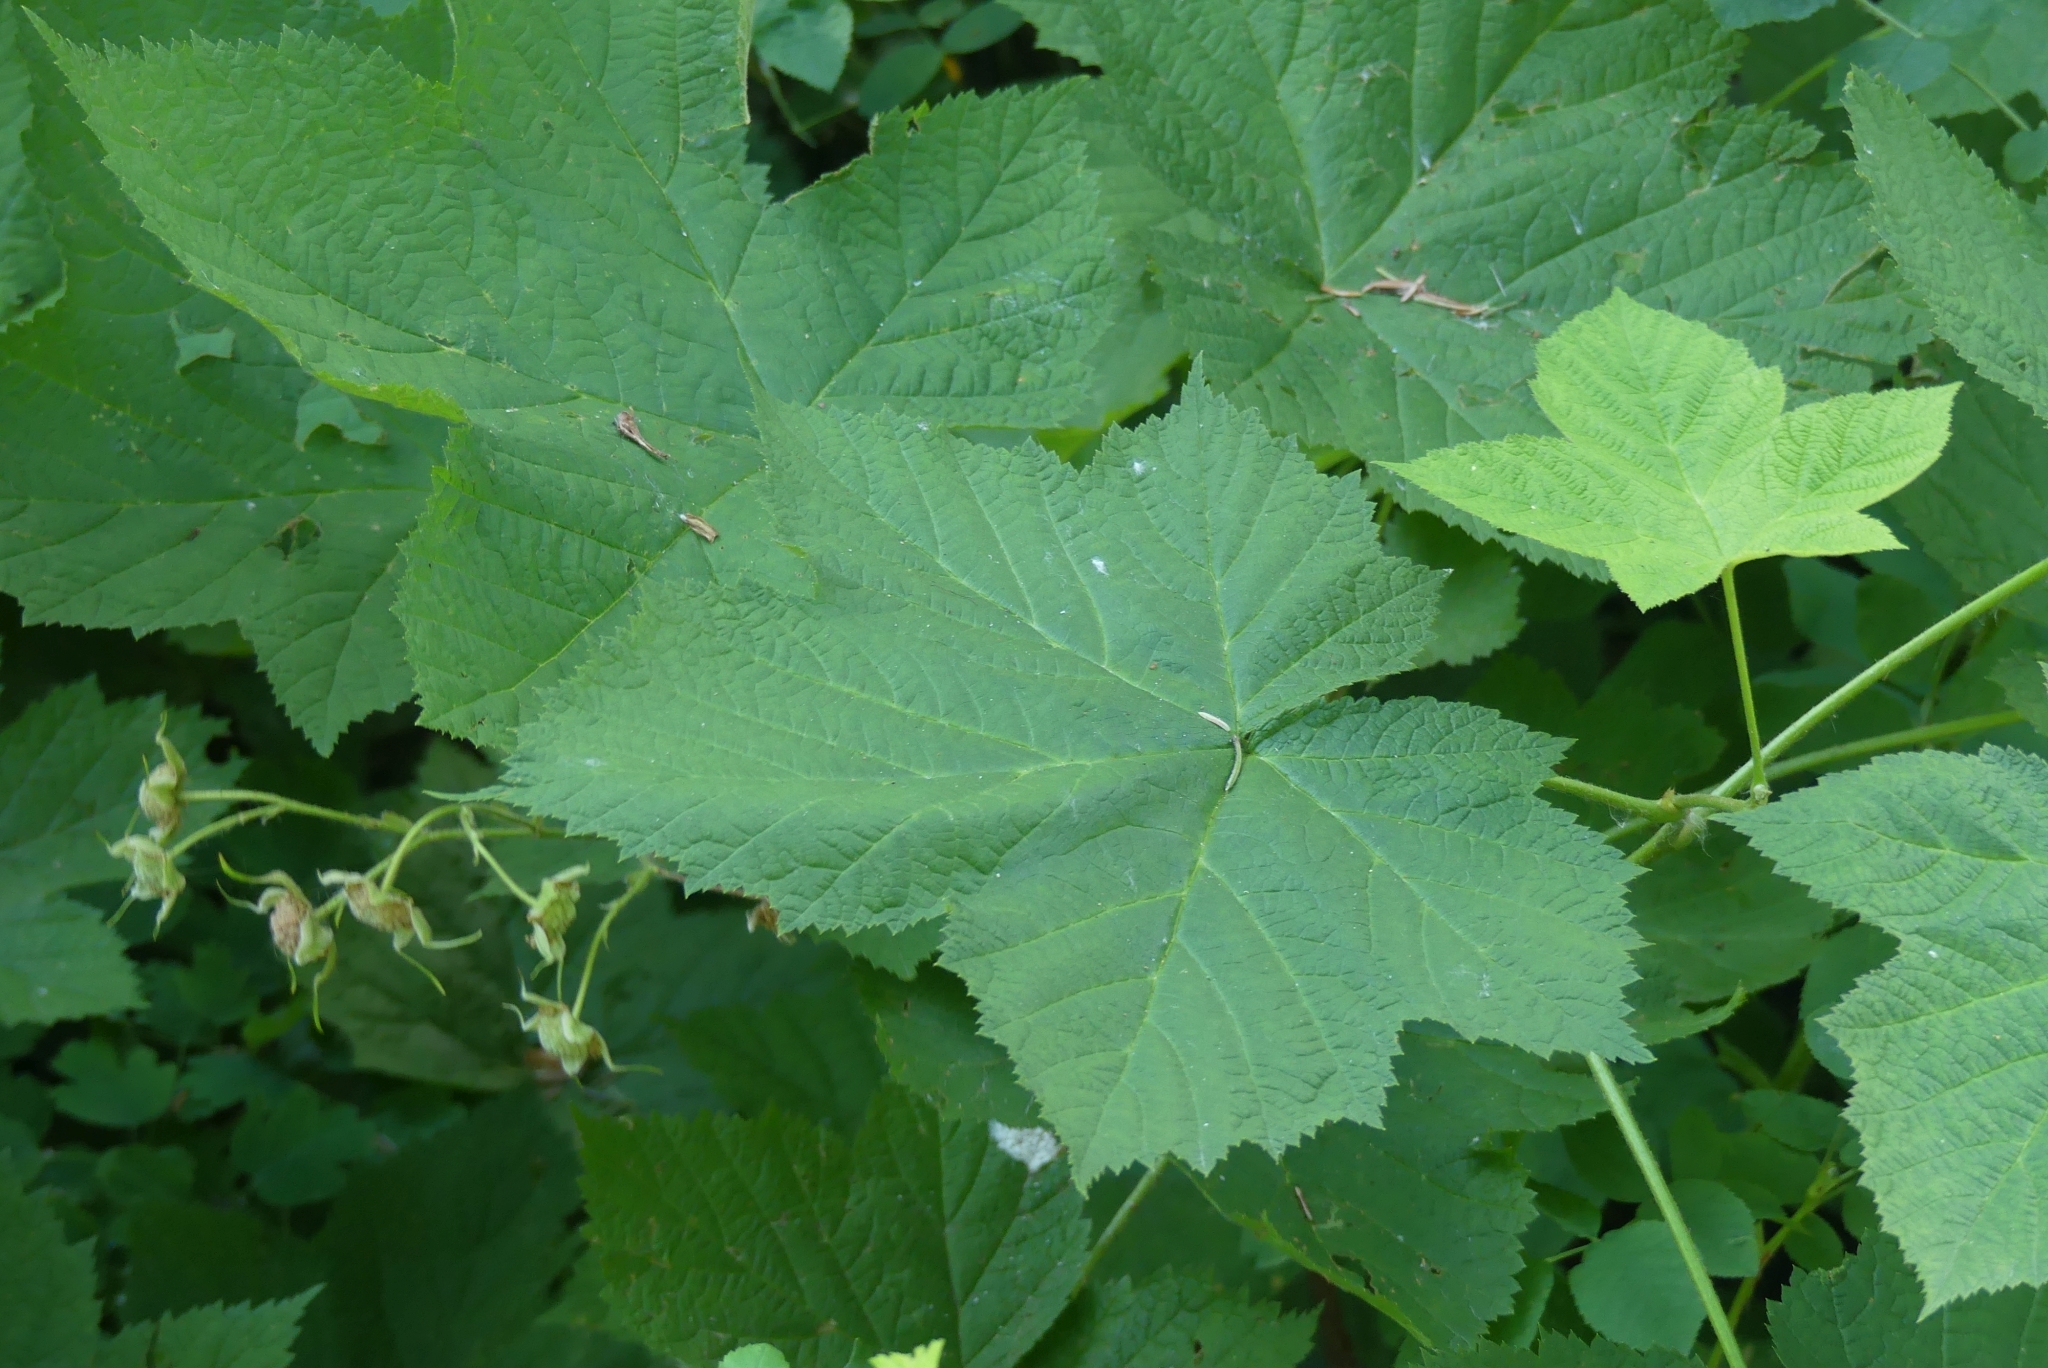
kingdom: Plantae
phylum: Tracheophyta
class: Magnoliopsida
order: Rosales
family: Rosaceae
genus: Rubus
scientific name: Rubus parviflorus
